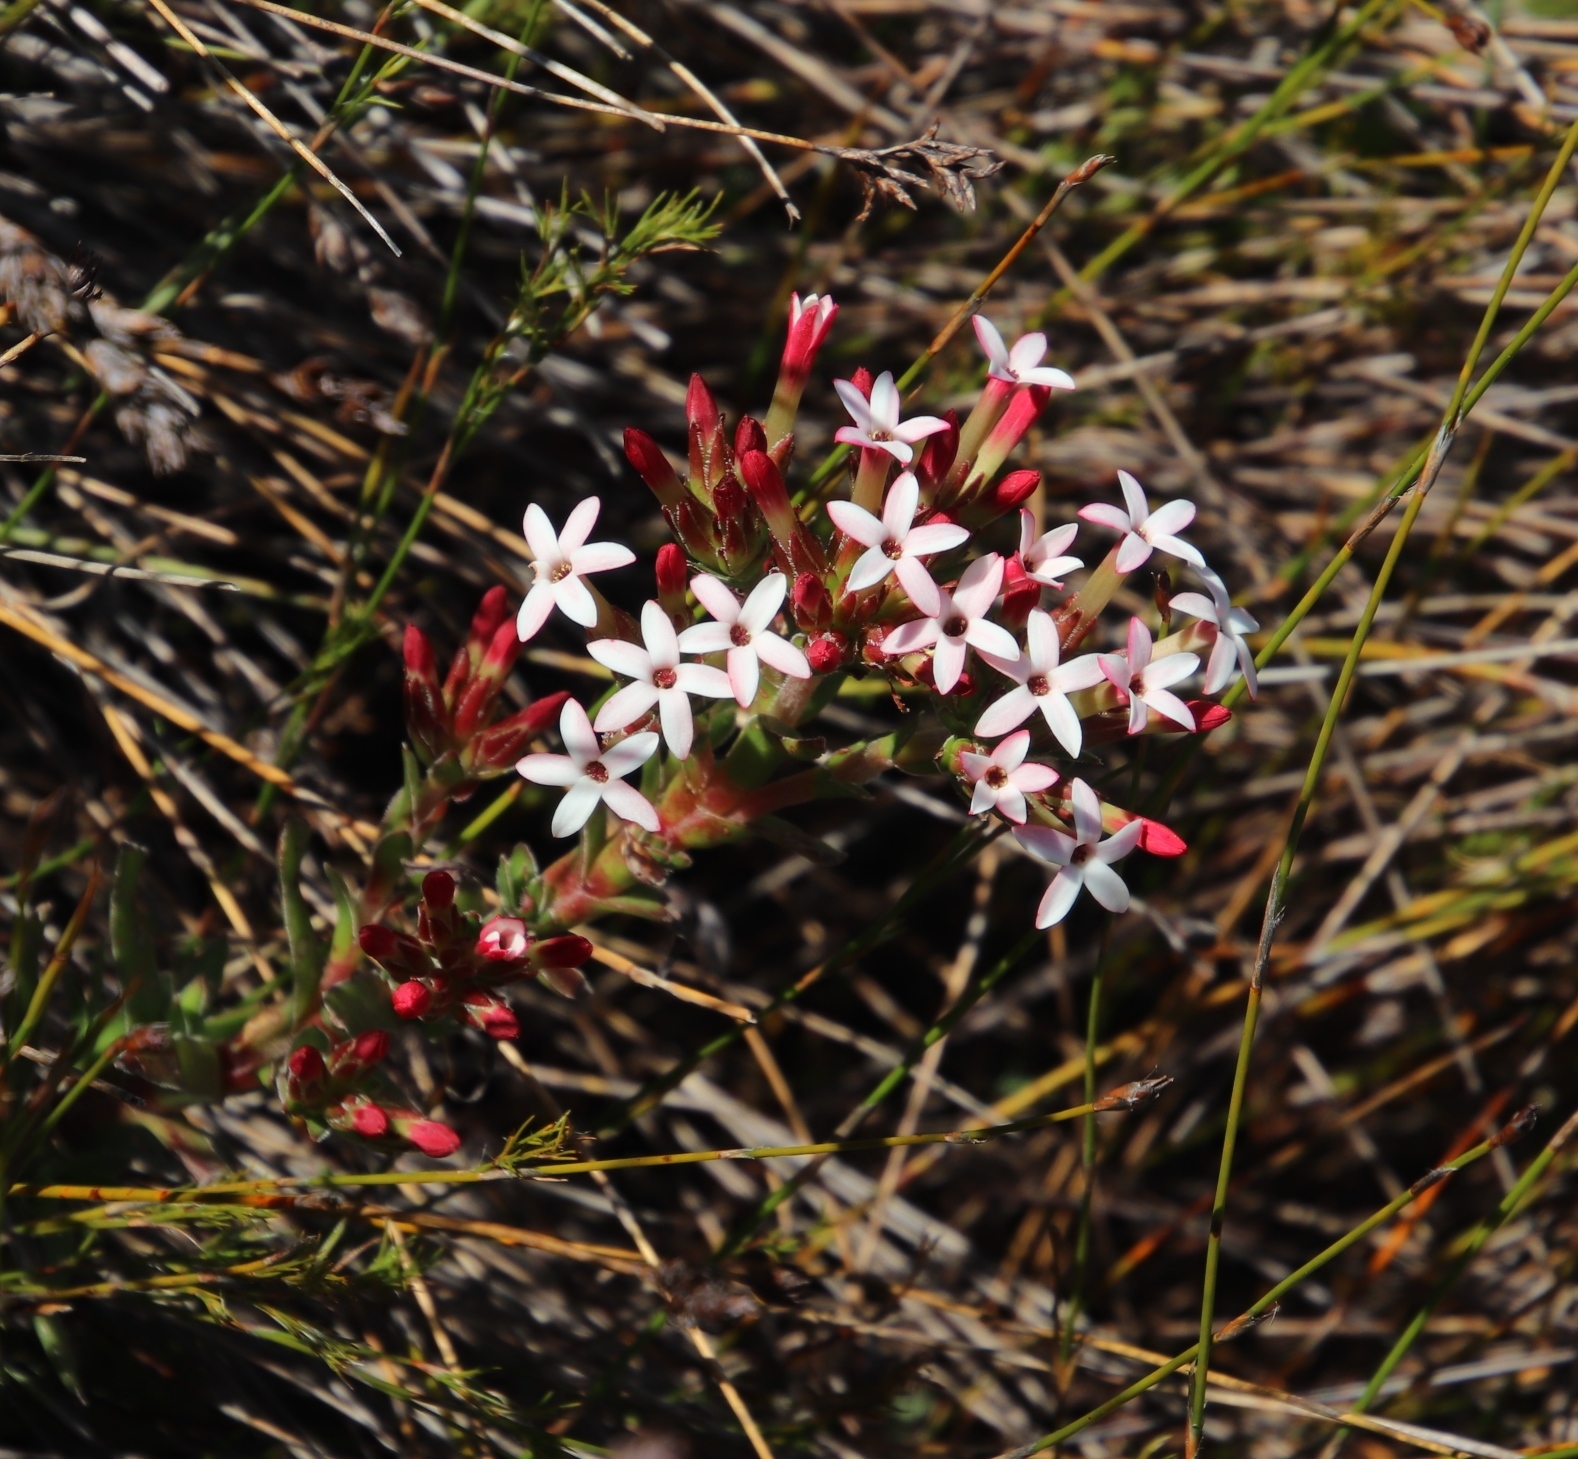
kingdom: Plantae
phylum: Tracheophyta
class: Magnoliopsida
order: Saxifragales
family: Crassulaceae
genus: Crassula
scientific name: Crassula fascicularis
